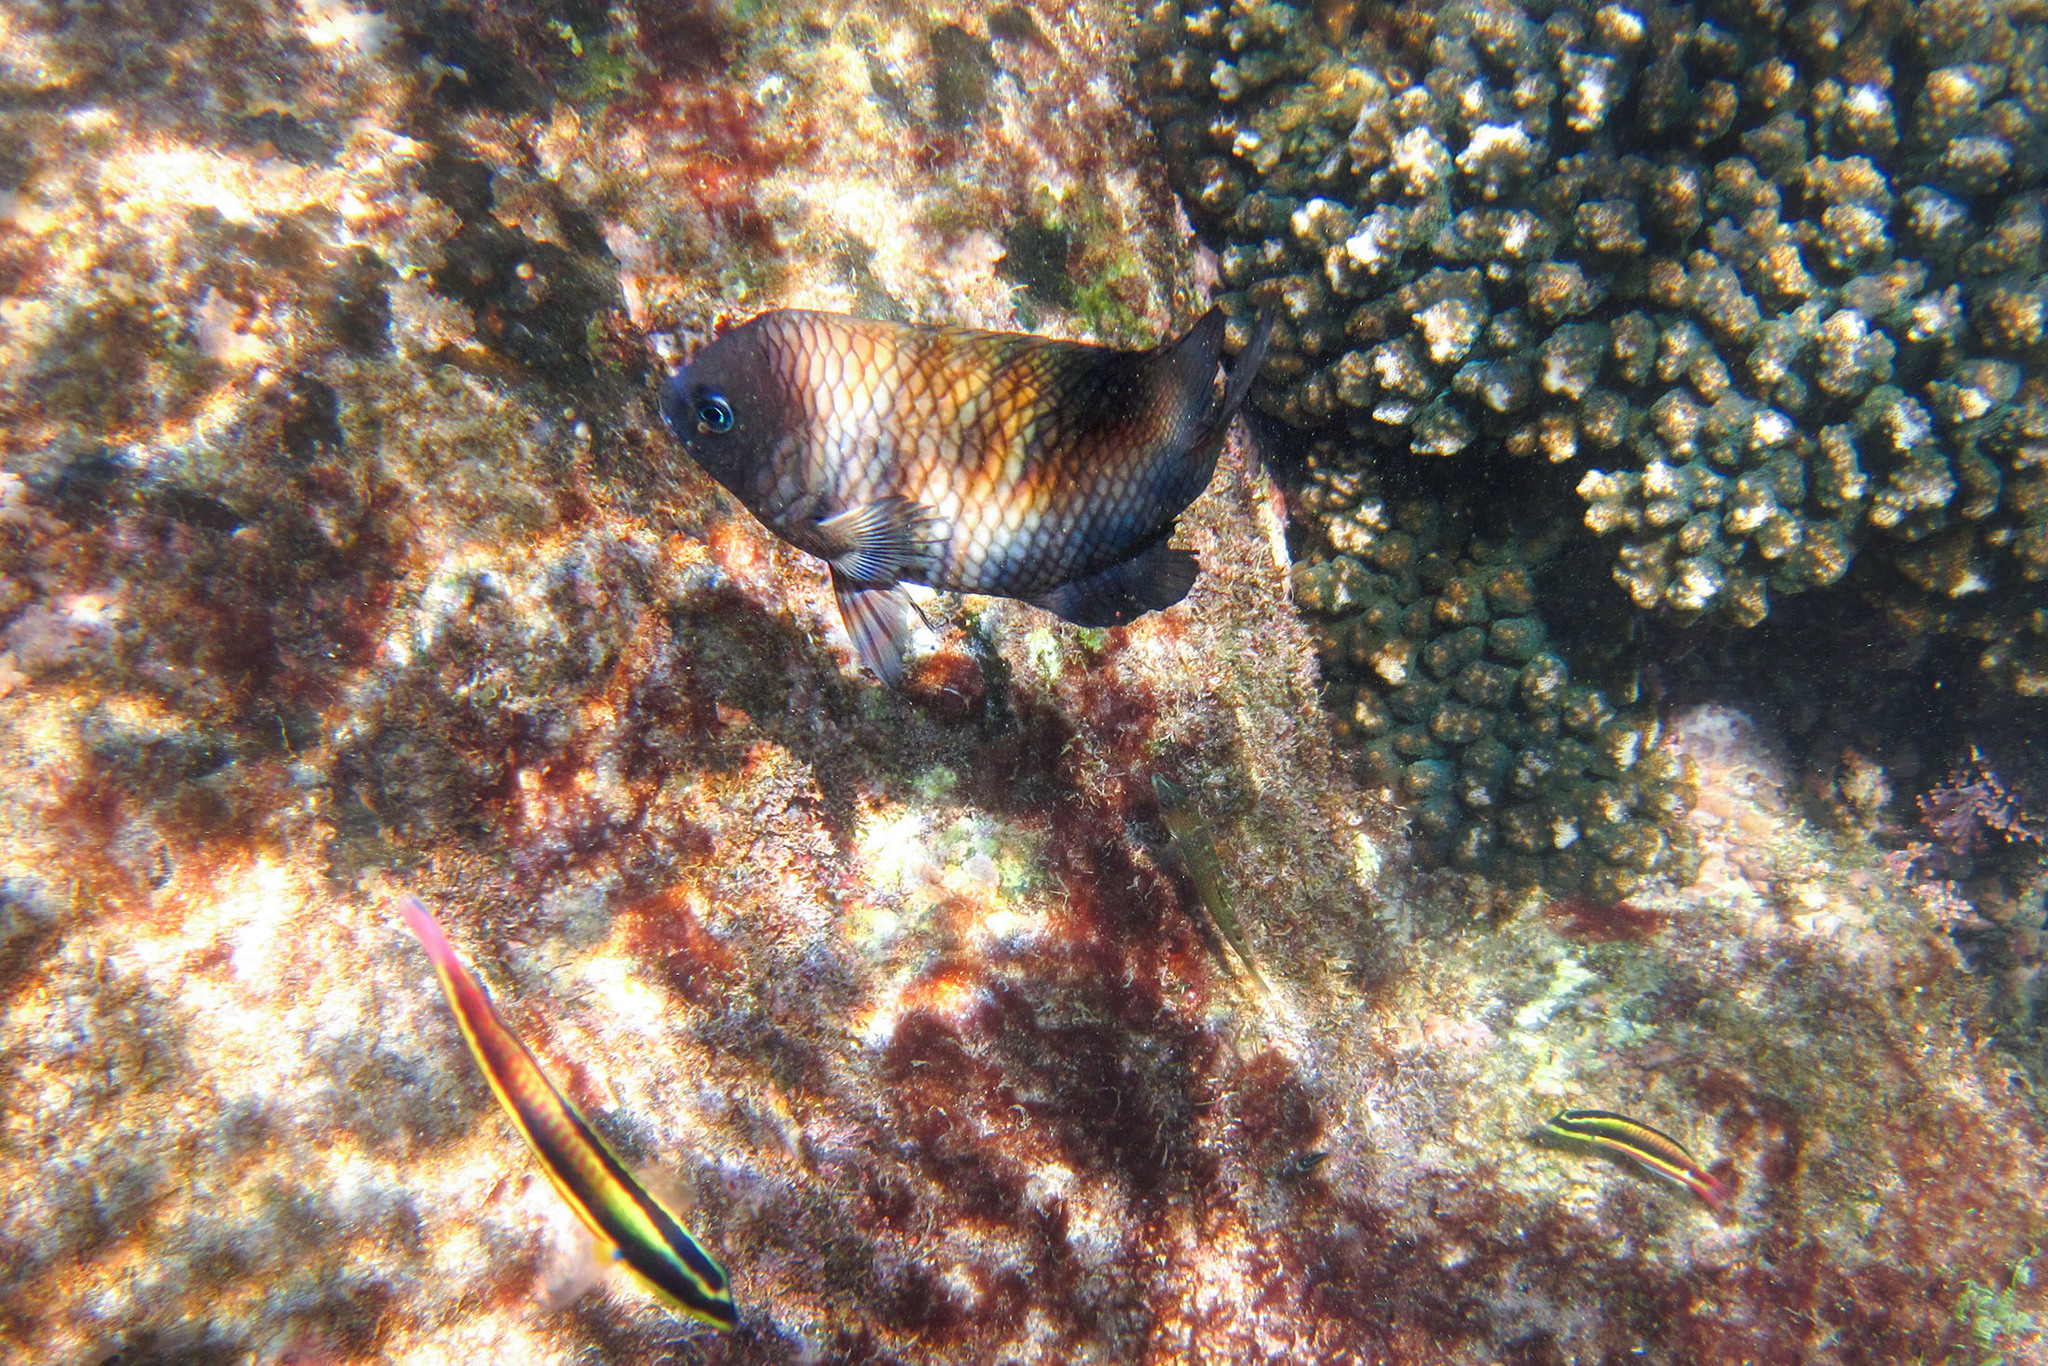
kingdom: Animalia
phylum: Chordata
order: Perciformes
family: Pomacentridae
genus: Stegastes
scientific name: Stegastes acapulcoensis
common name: Acapulco damselfish
